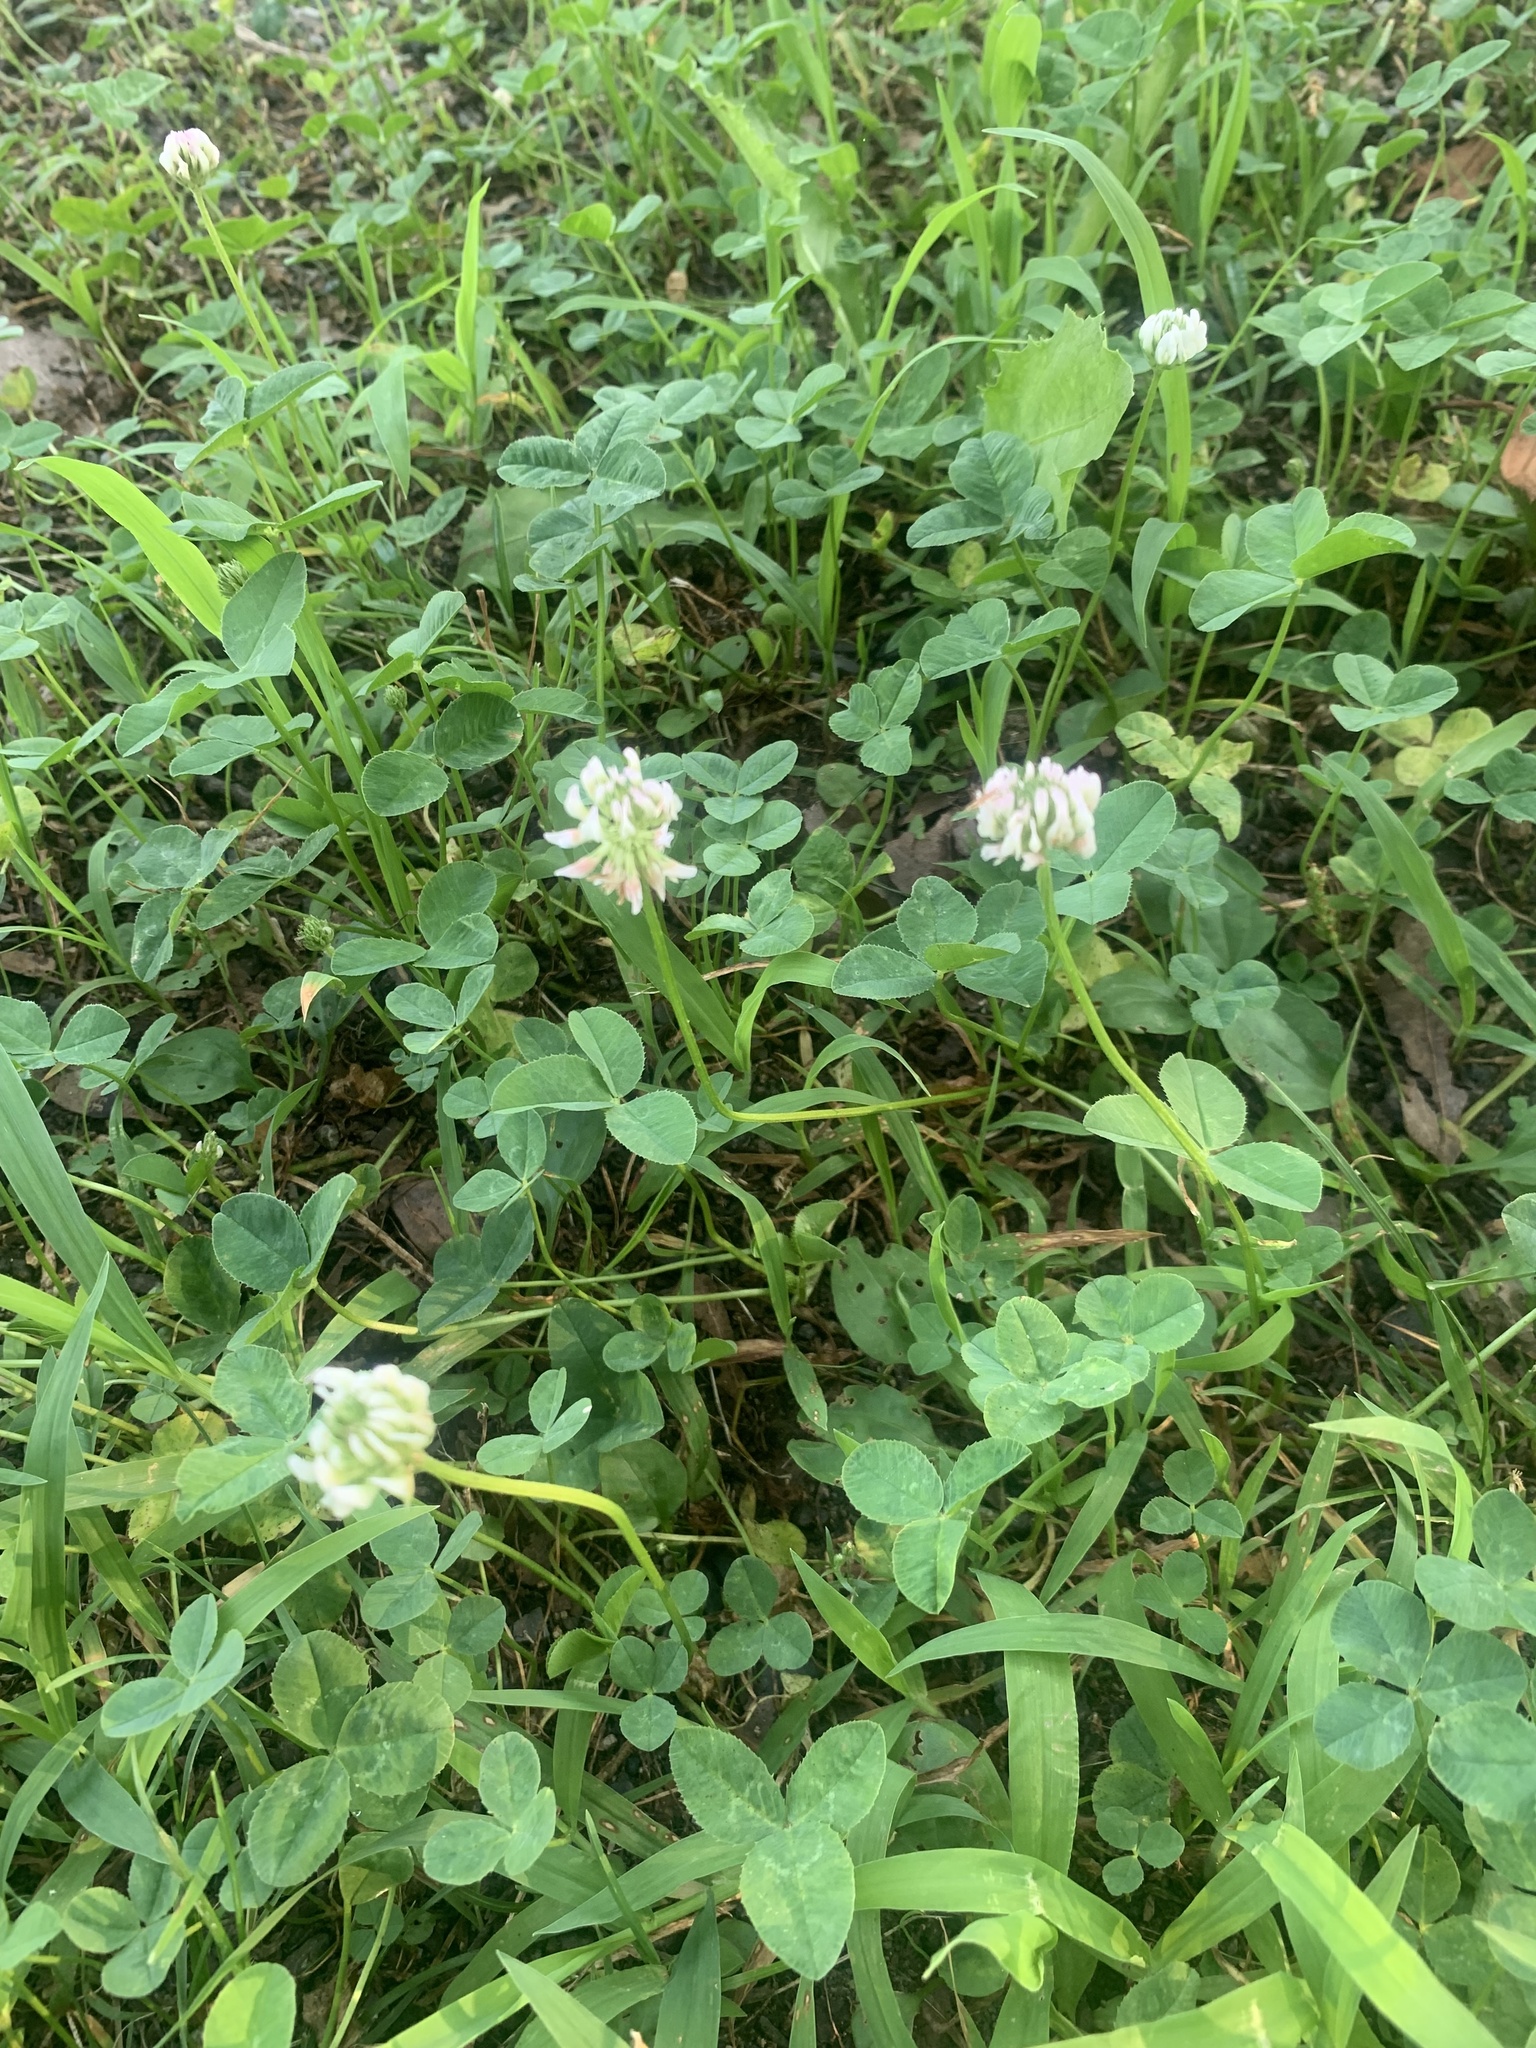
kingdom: Plantae
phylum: Tracheophyta
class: Magnoliopsida
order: Fabales
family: Fabaceae
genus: Trifolium
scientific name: Trifolium repens
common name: White clover
